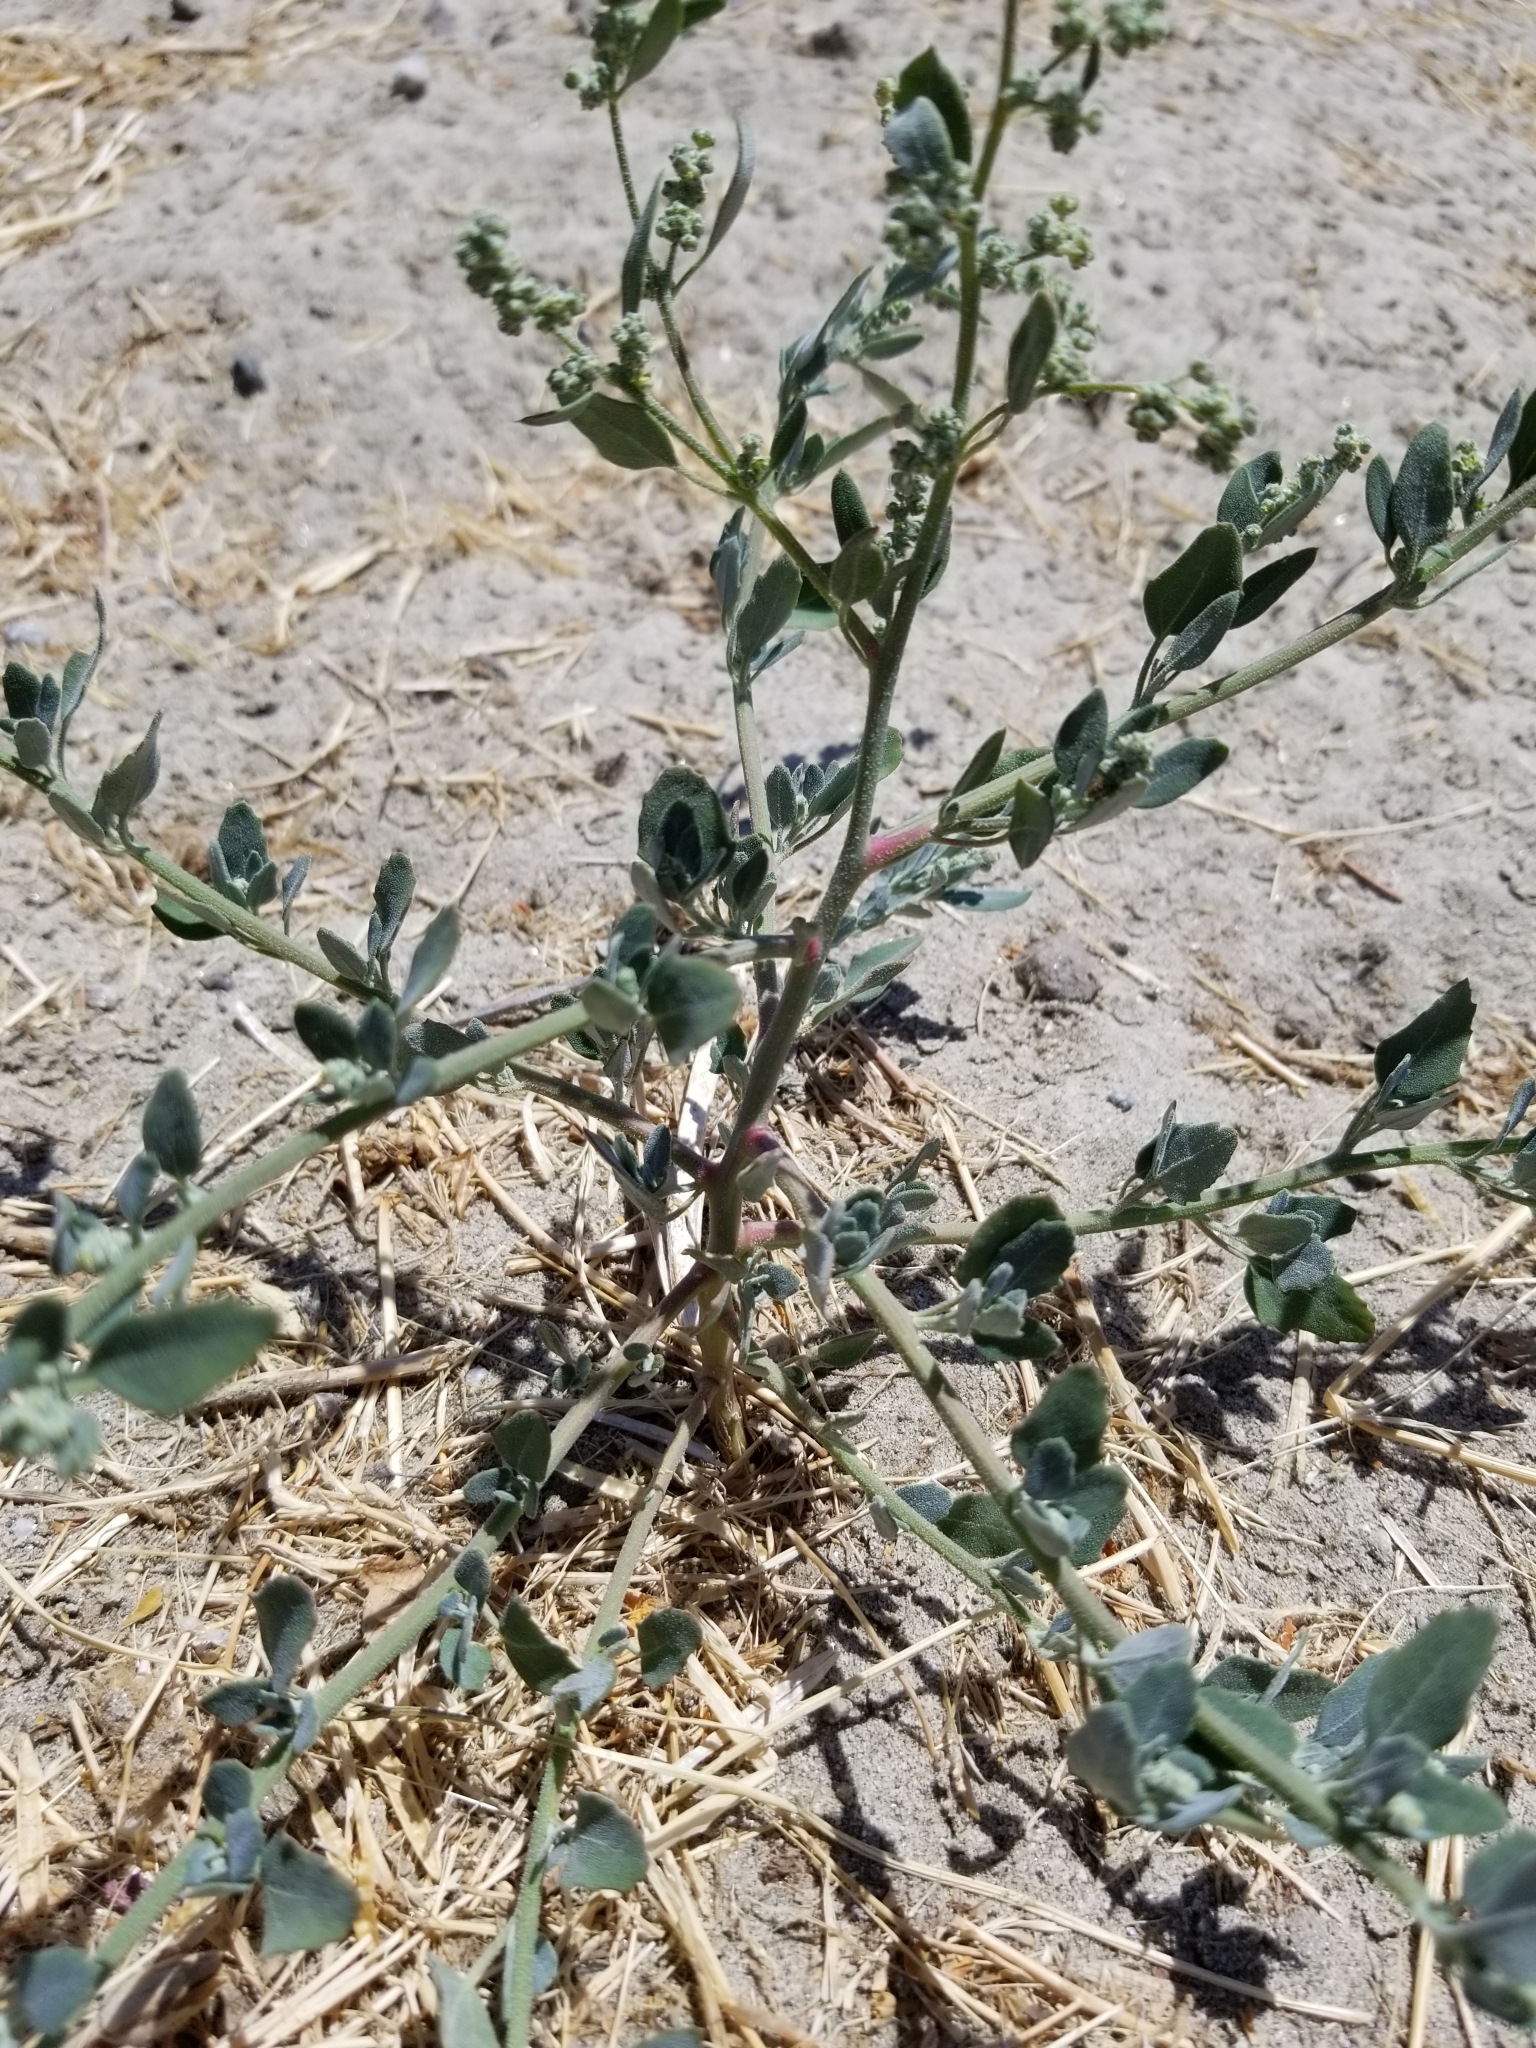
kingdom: Plantae
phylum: Tracheophyta
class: Magnoliopsida
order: Caryophyllales
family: Amaranthaceae
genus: Atriplex
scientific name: Atriplex lentiformis
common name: Big saltbush
